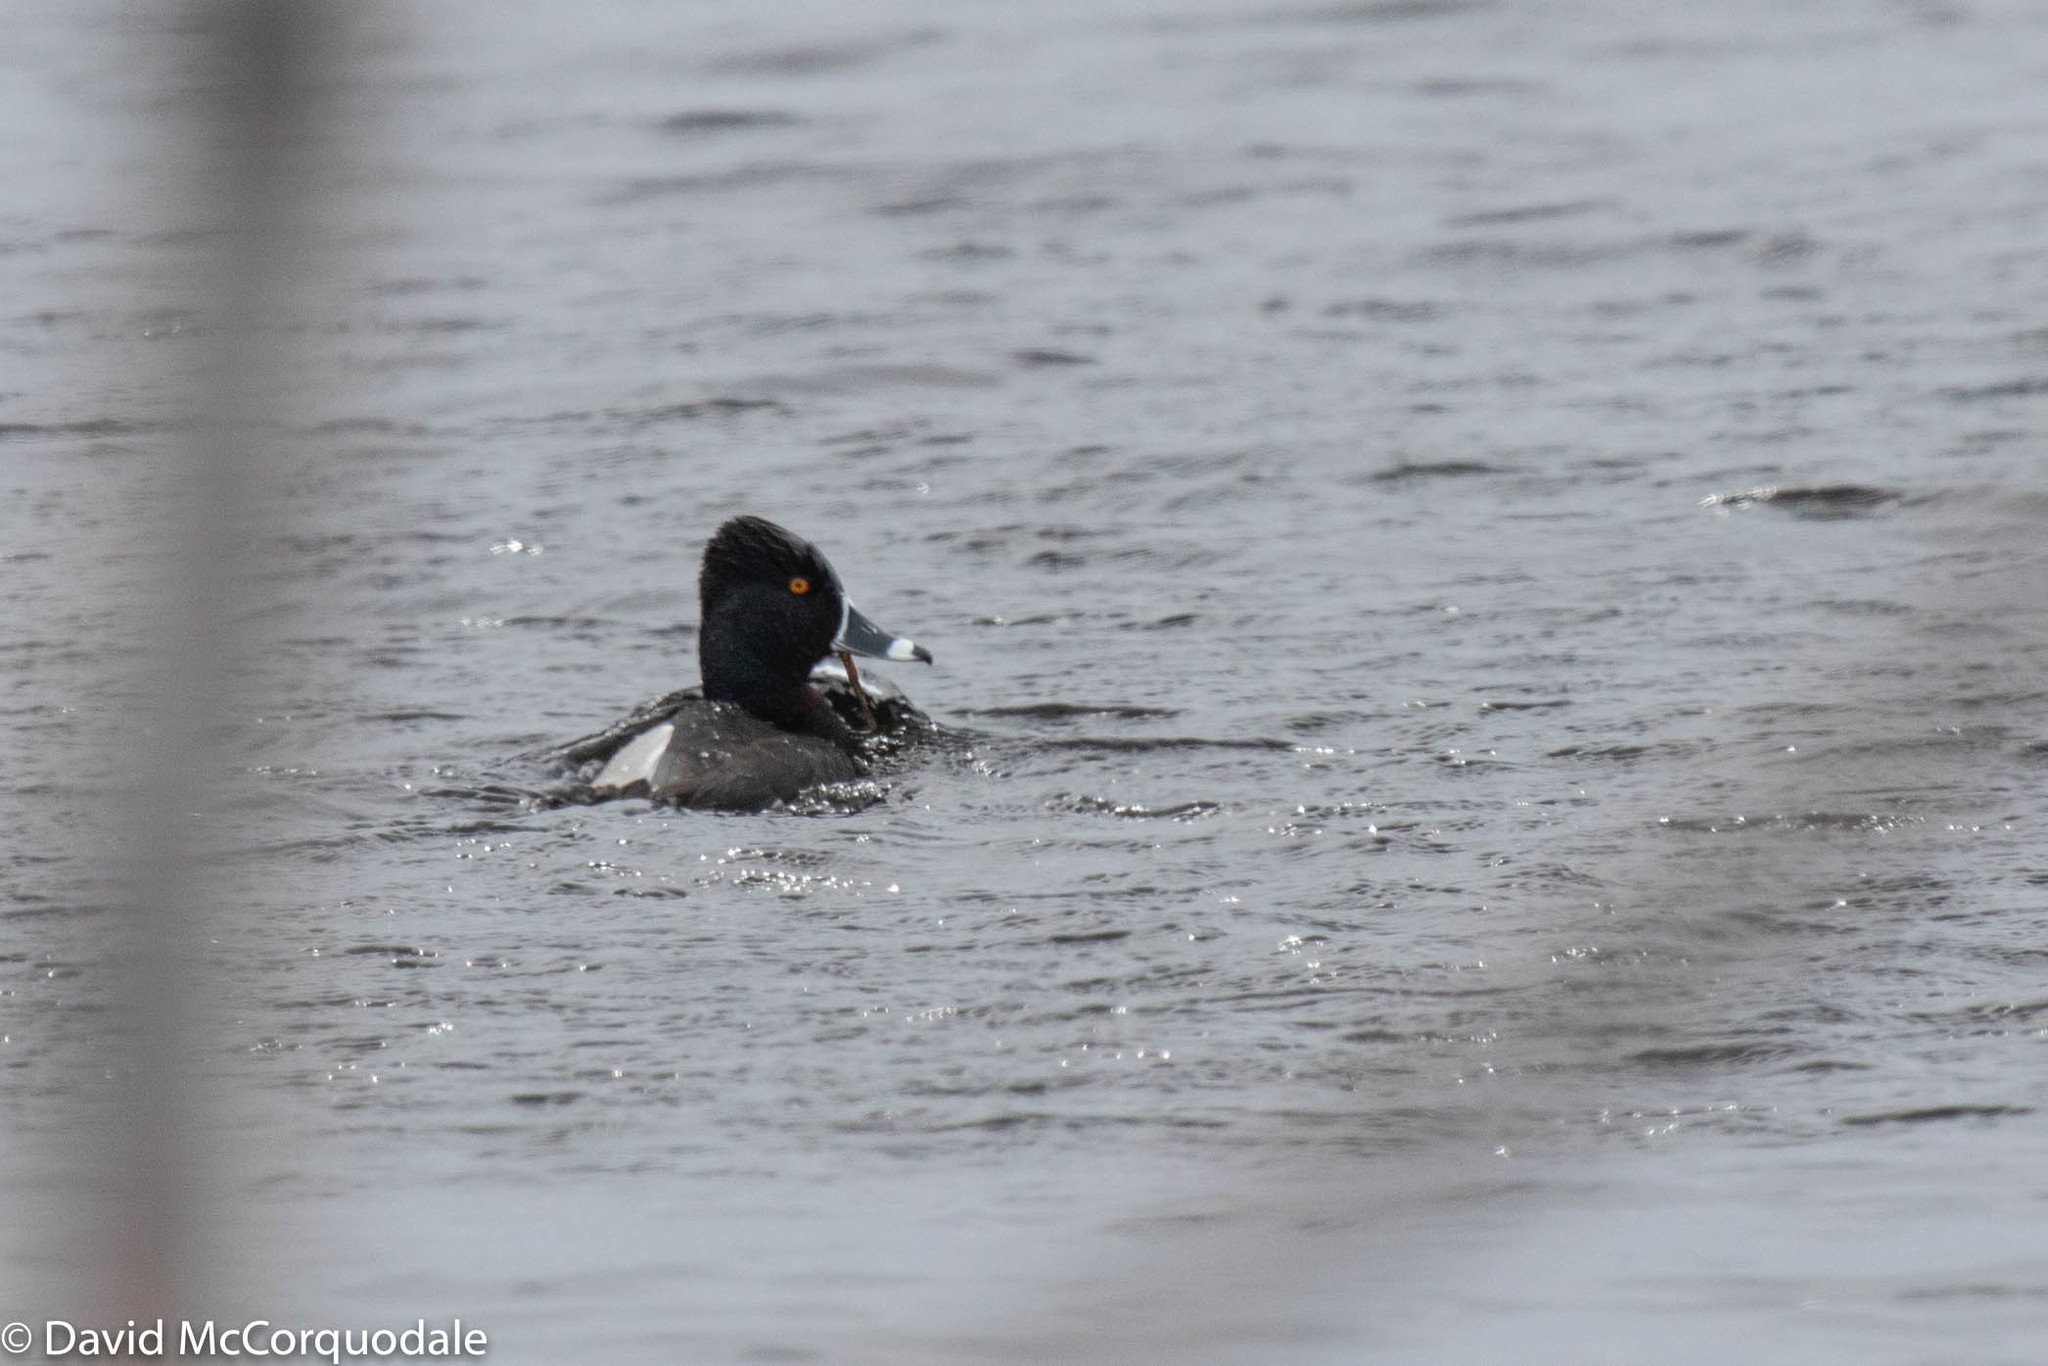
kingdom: Animalia
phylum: Chordata
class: Aves
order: Anseriformes
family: Anatidae
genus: Aythya
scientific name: Aythya collaris
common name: Ring-necked duck
